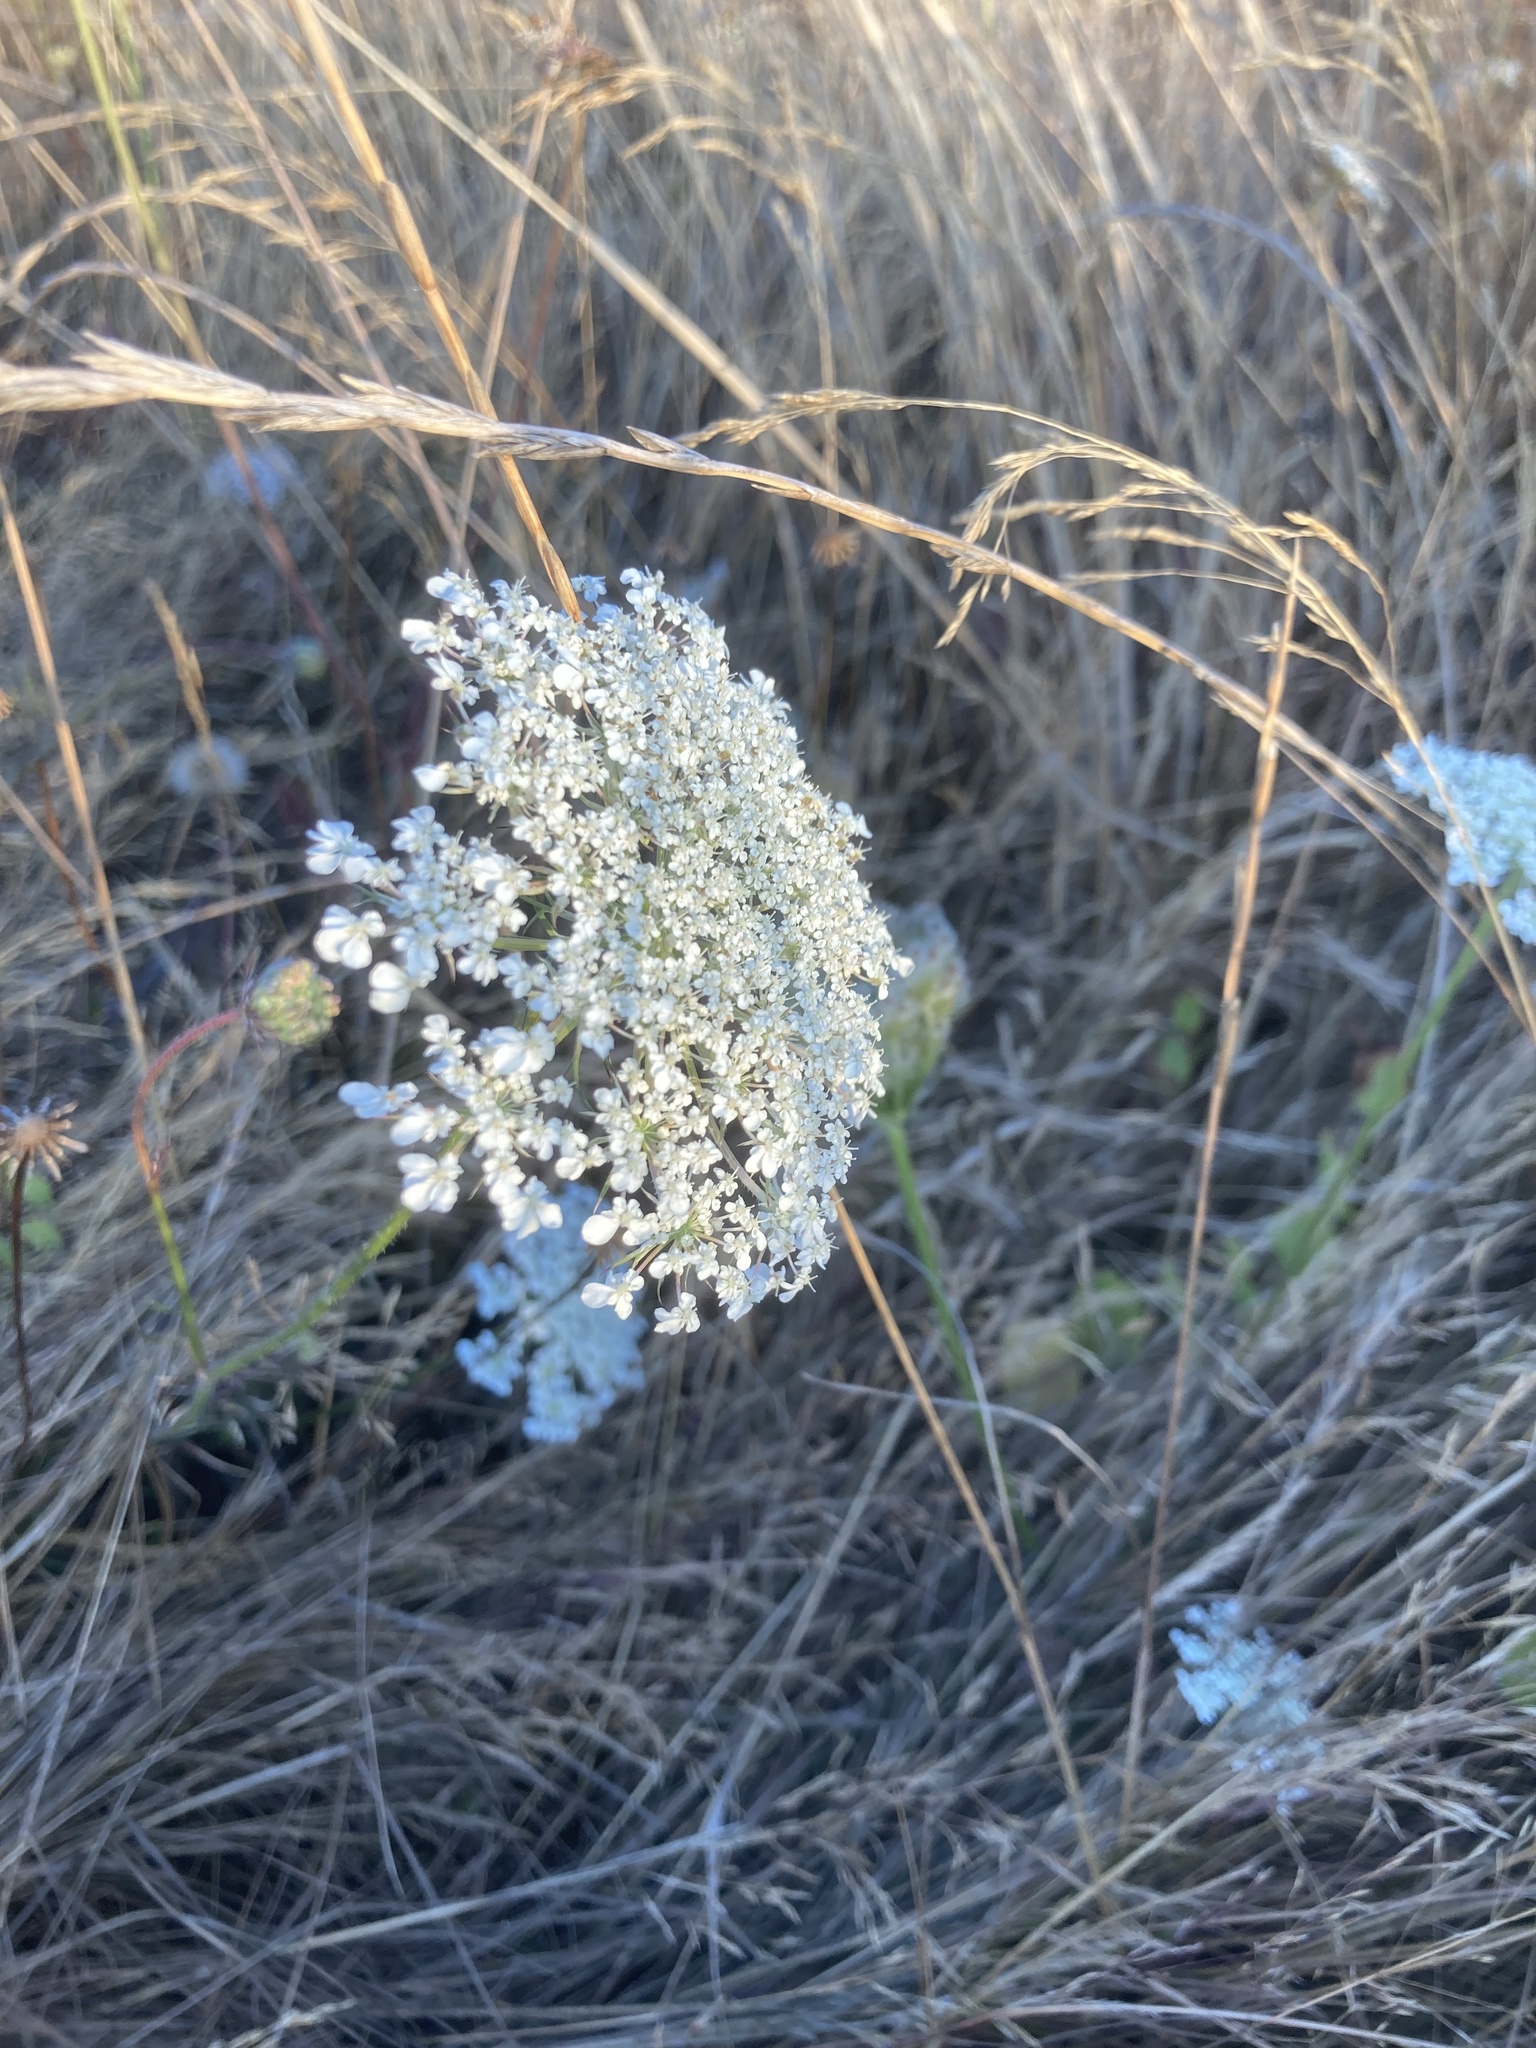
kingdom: Plantae
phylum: Tracheophyta
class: Magnoliopsida
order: Apiales
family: Apiaceae
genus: Daucus
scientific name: Daucus carota
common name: Wild carrot
